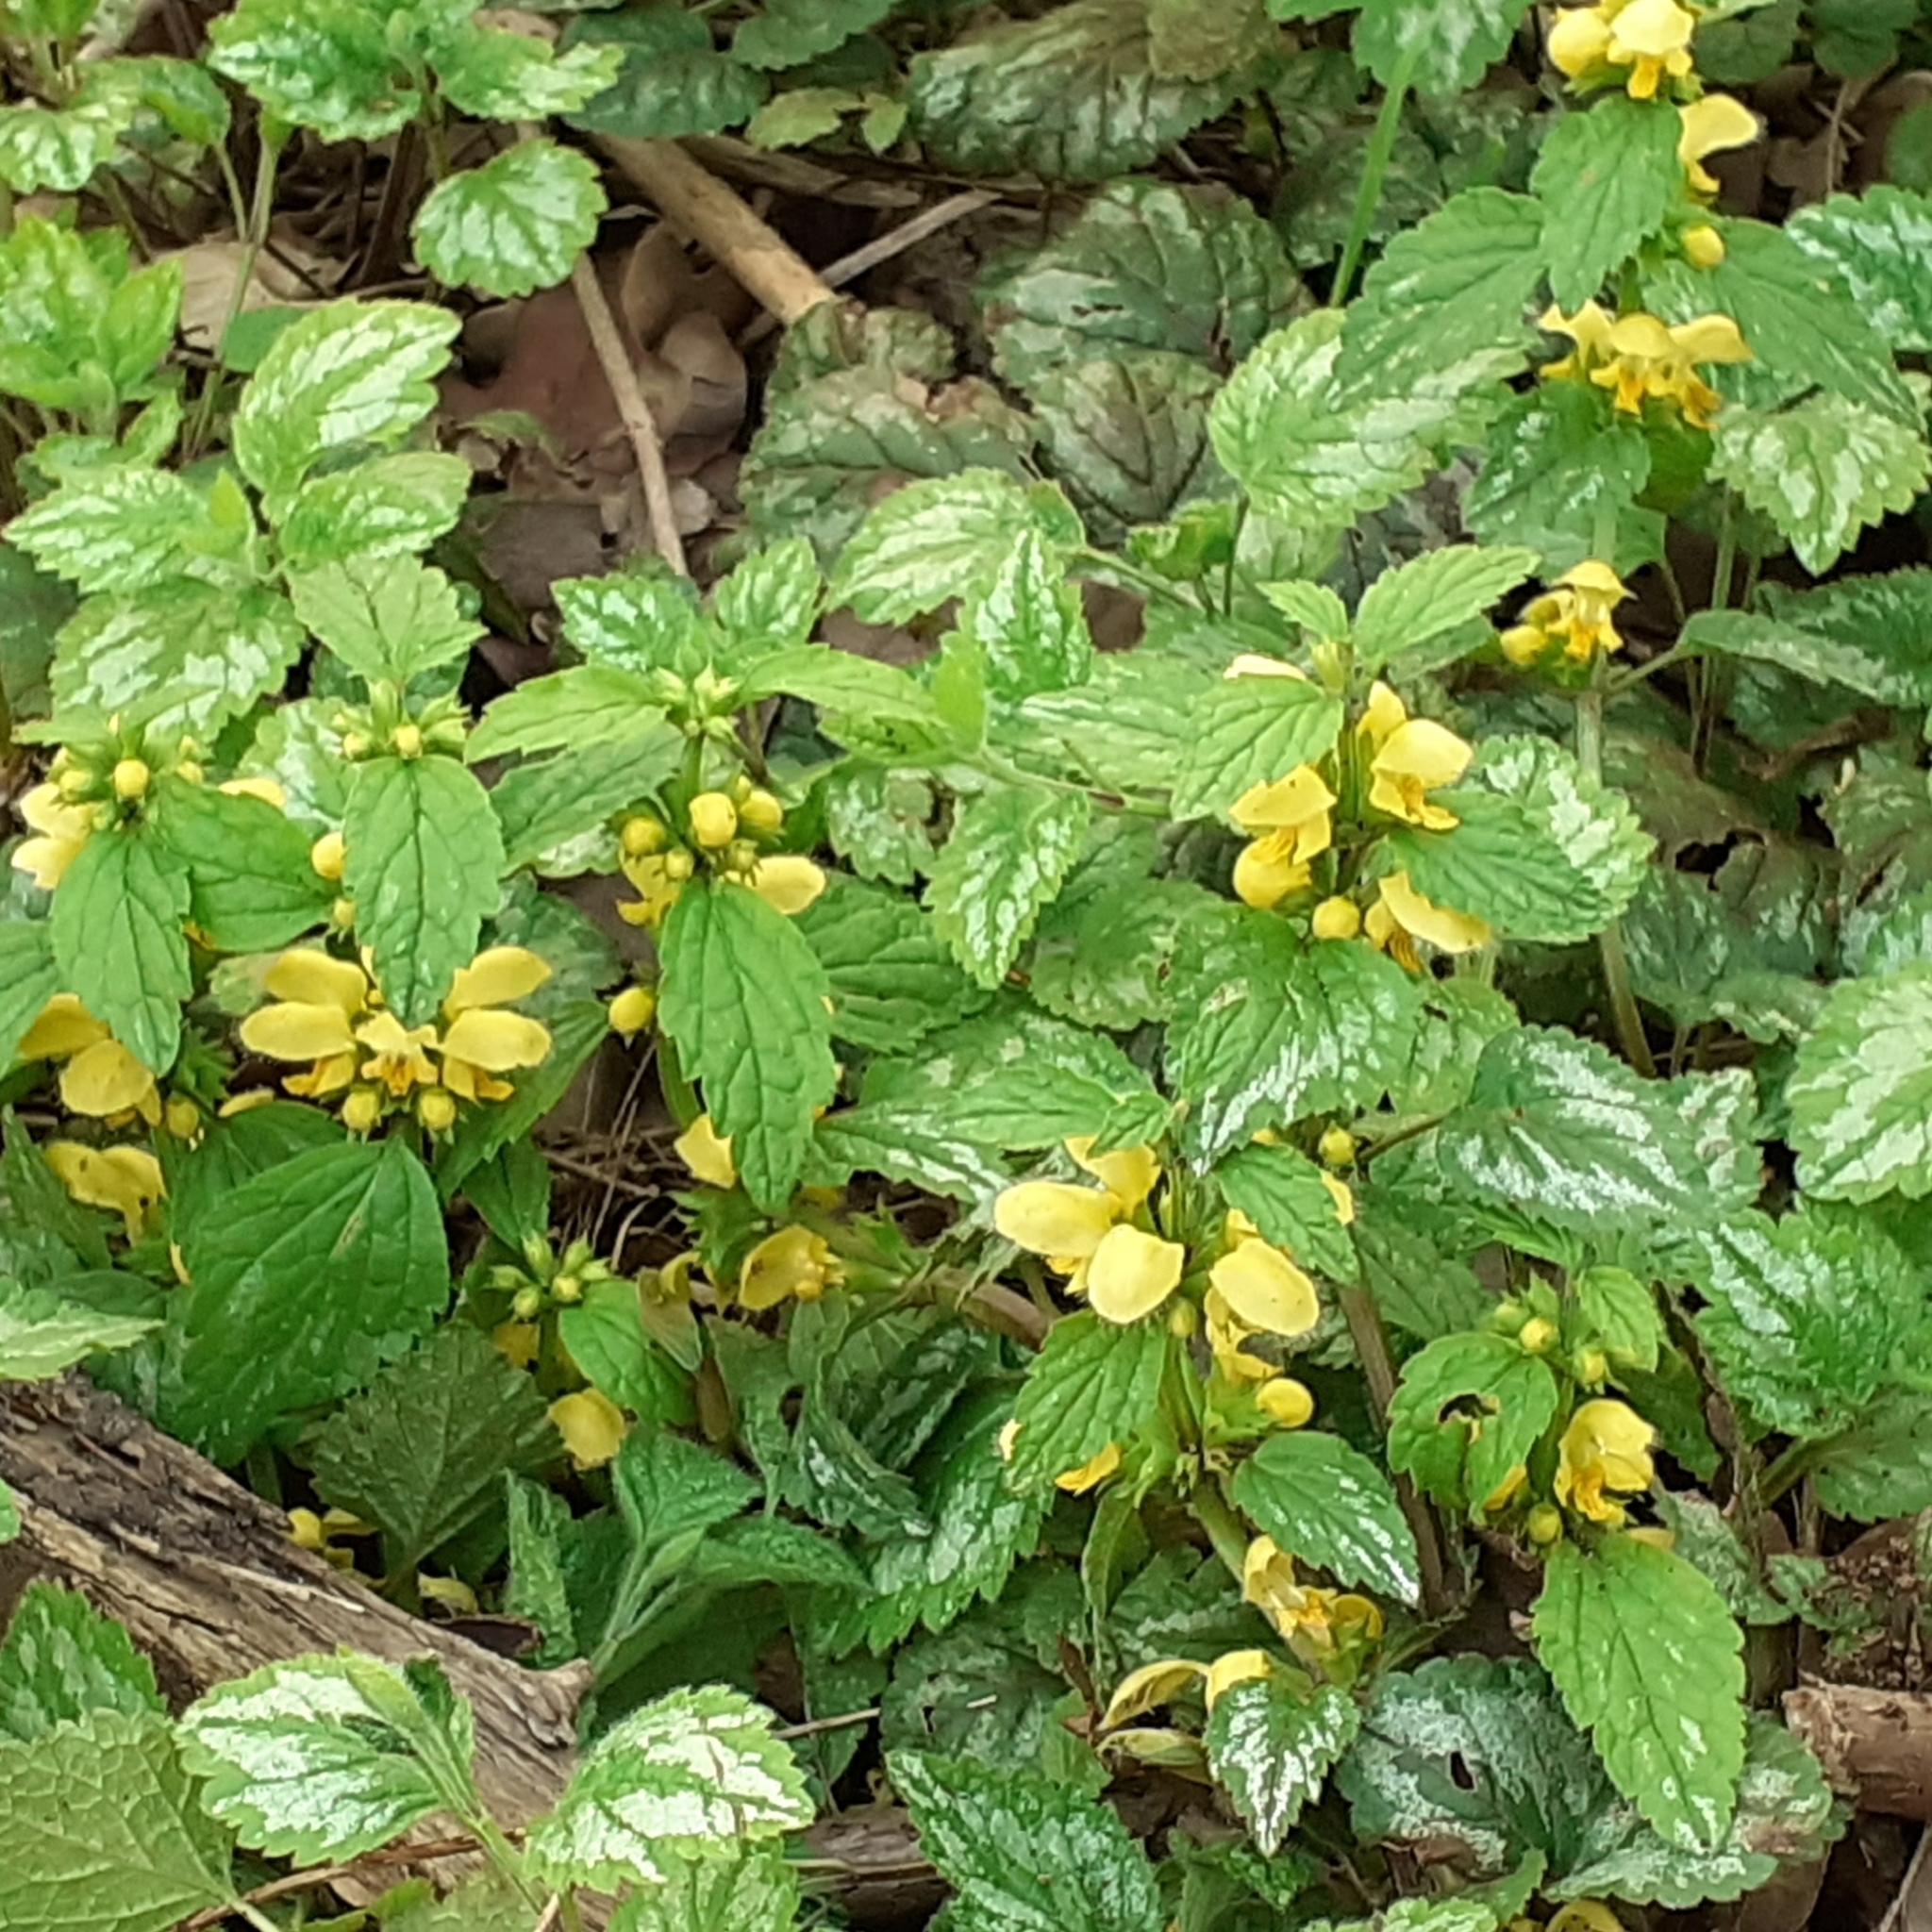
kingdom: Plantae
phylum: Tracheophyta
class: Magnoliopsida
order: Lamiales
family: Lamiaceae
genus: Lamium
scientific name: Lamium galeobdolon
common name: Yellow archangel
